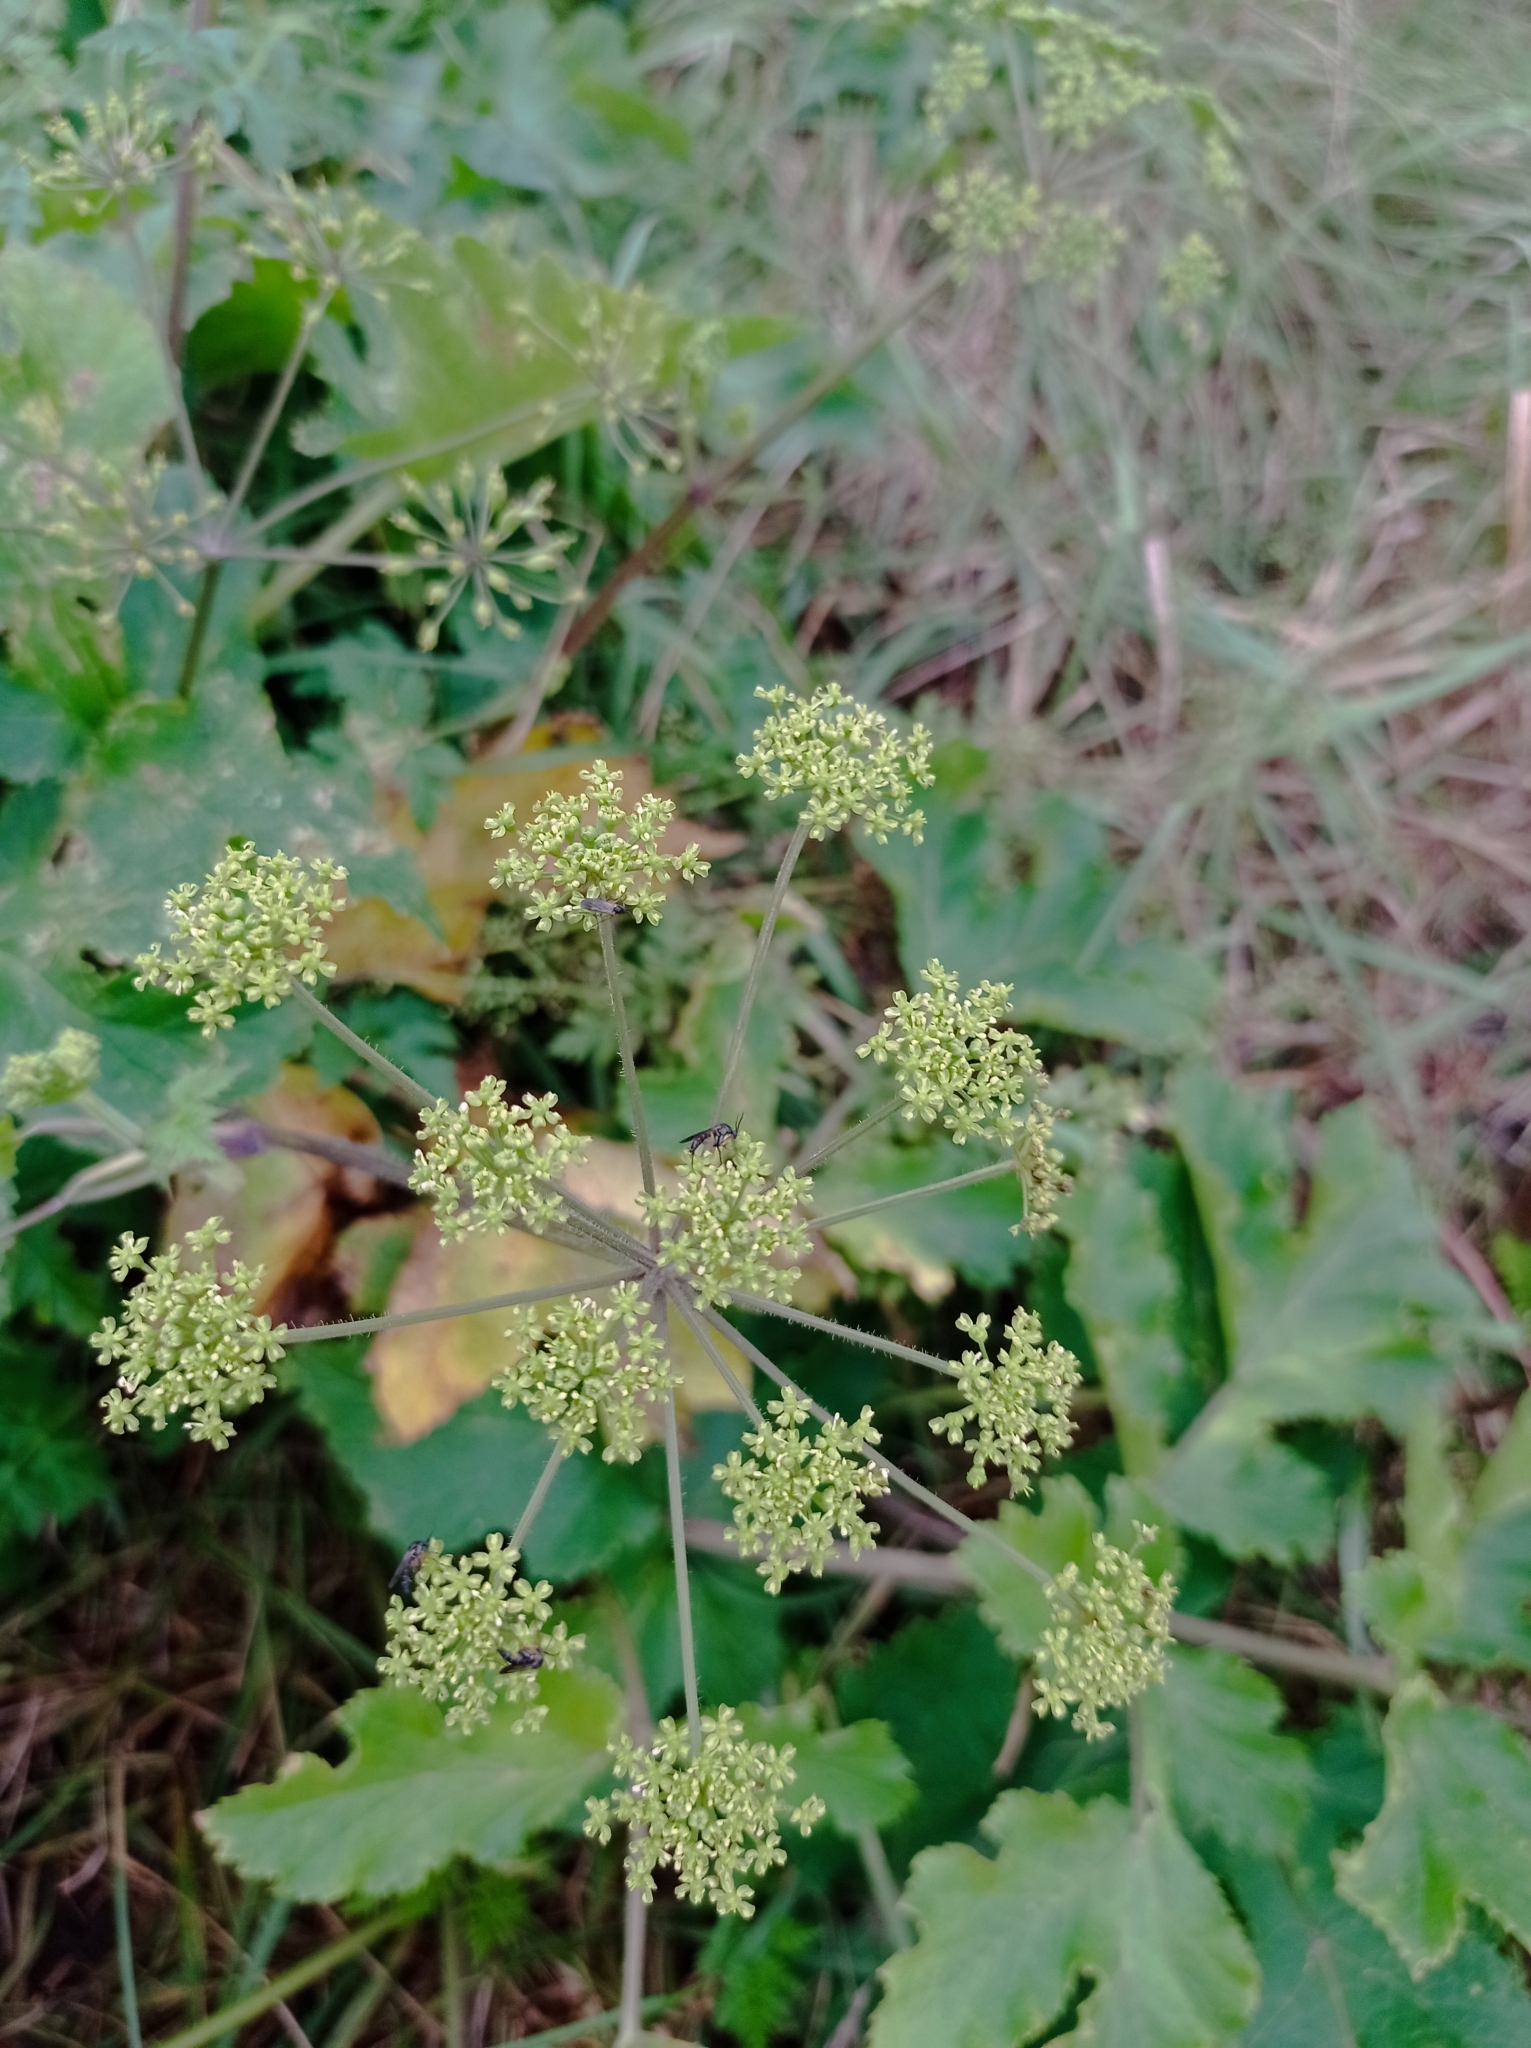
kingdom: Plantae
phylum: Tracheophyta
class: Magnoliopsida
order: Apiales
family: Apiaceae
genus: Heracleum
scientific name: Heracleum sphondylium
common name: Hogweed
